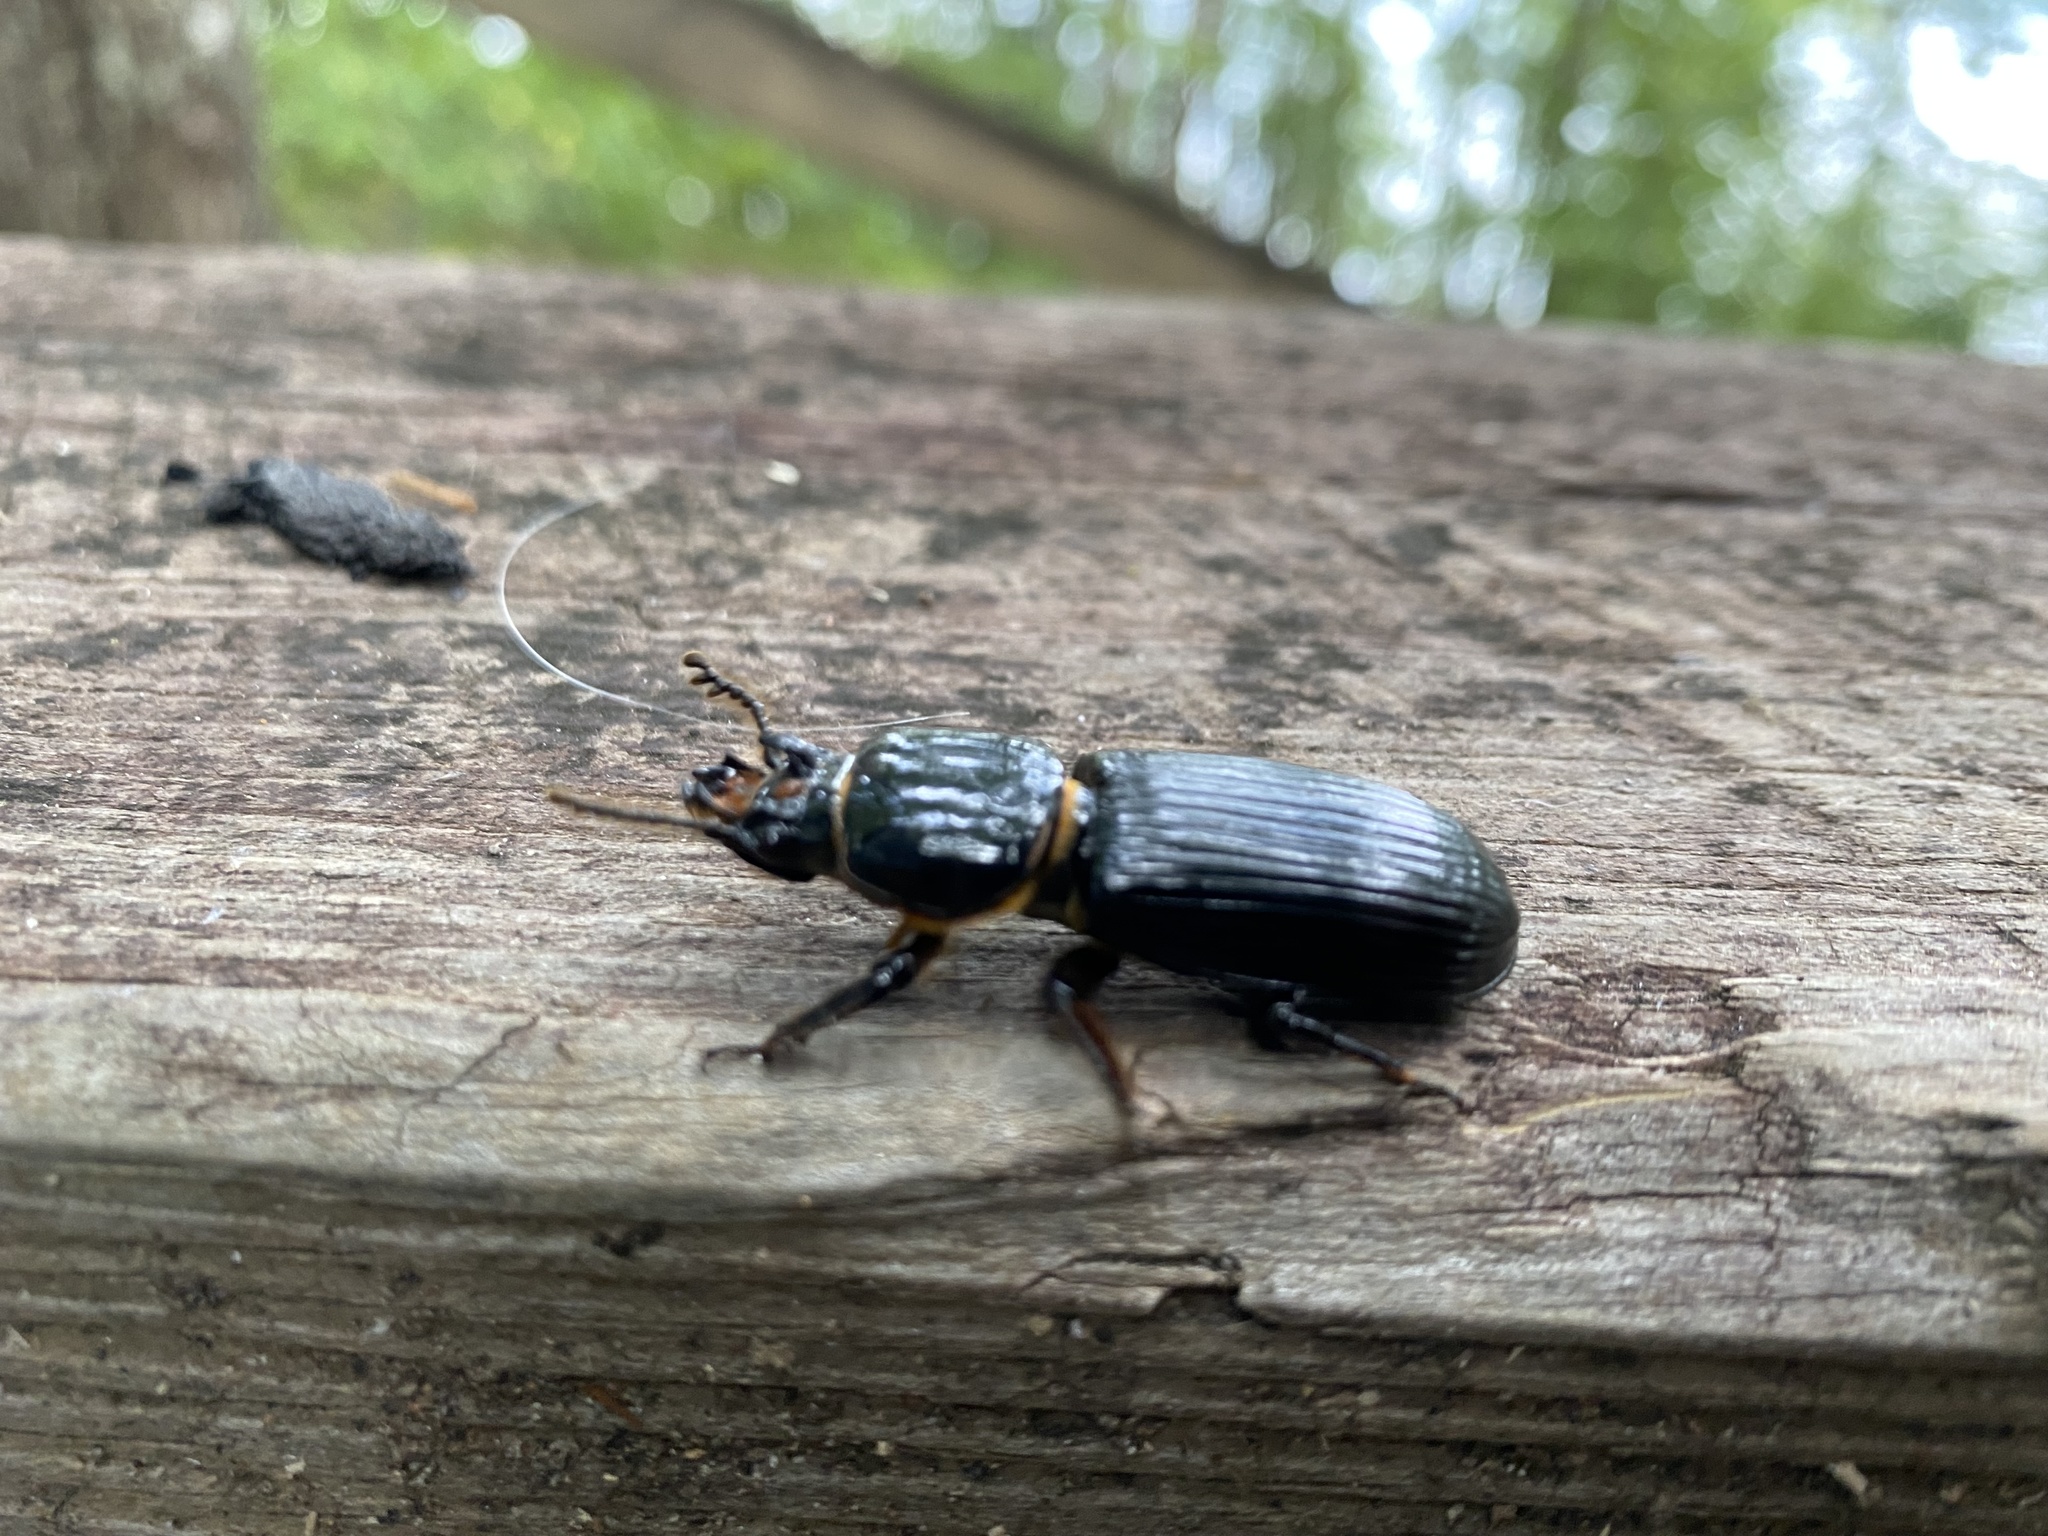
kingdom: Animalia
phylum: Arthropoda
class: Insecta
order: Coleoptera
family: Passalidae
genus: Odontotaenius
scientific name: Odontotaenius disjunctus
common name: Patent leather beetle
